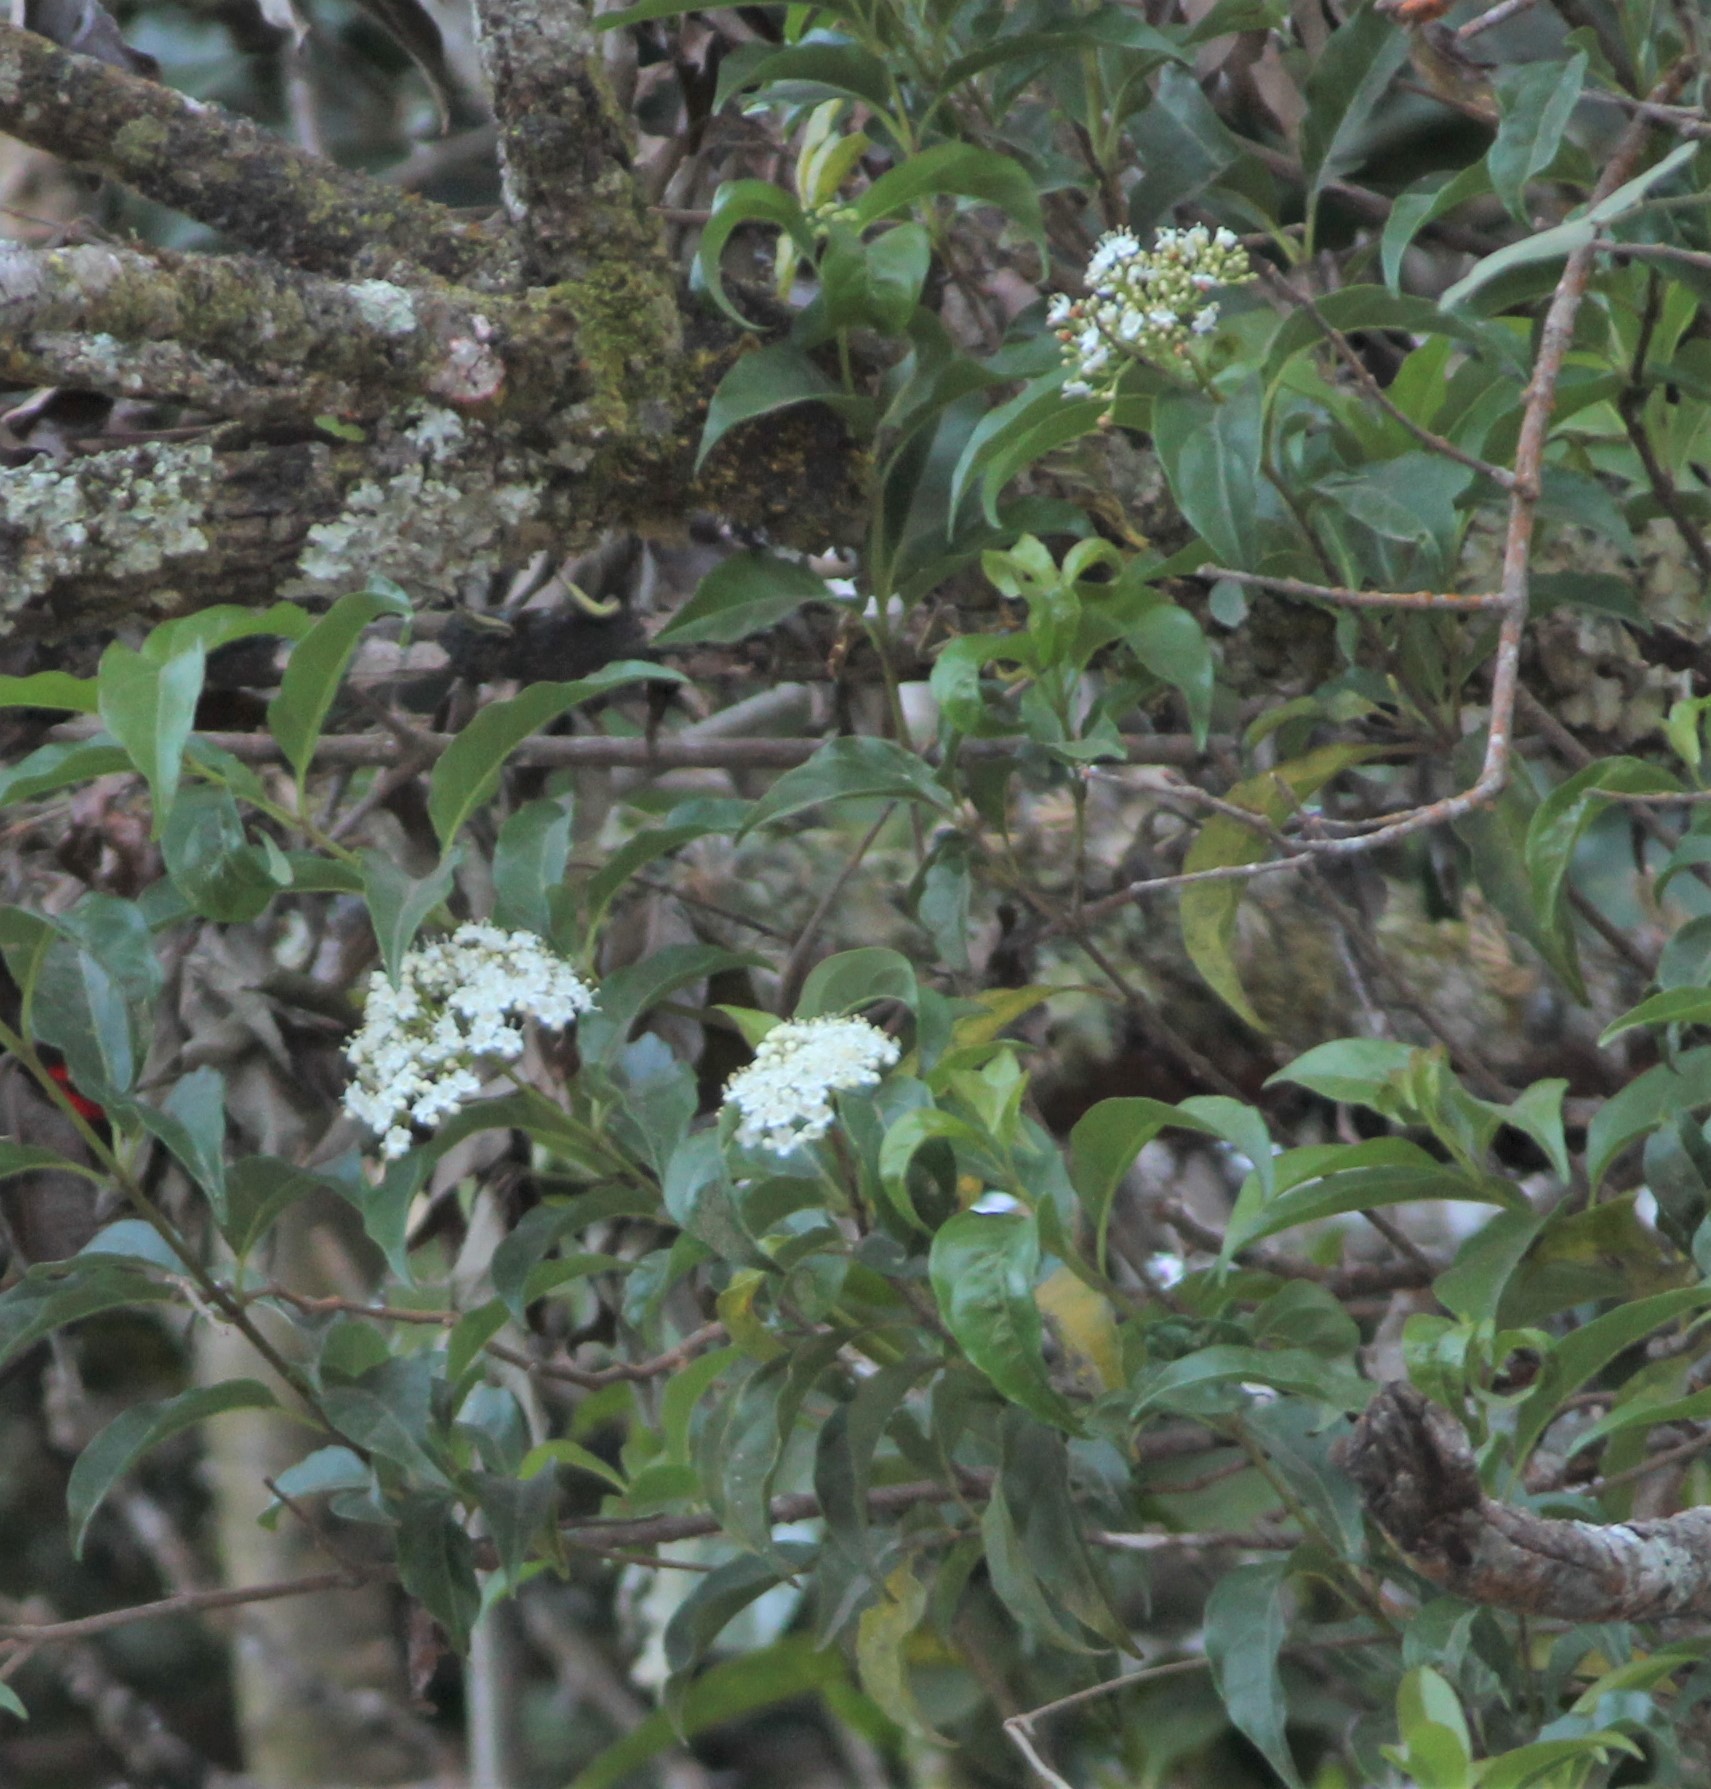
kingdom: Plantae
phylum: Tracheophyta
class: Magnoliopsida
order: Dipsacales
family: Viburnaceae
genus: Viburnum
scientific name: Viburnum costaricanum
